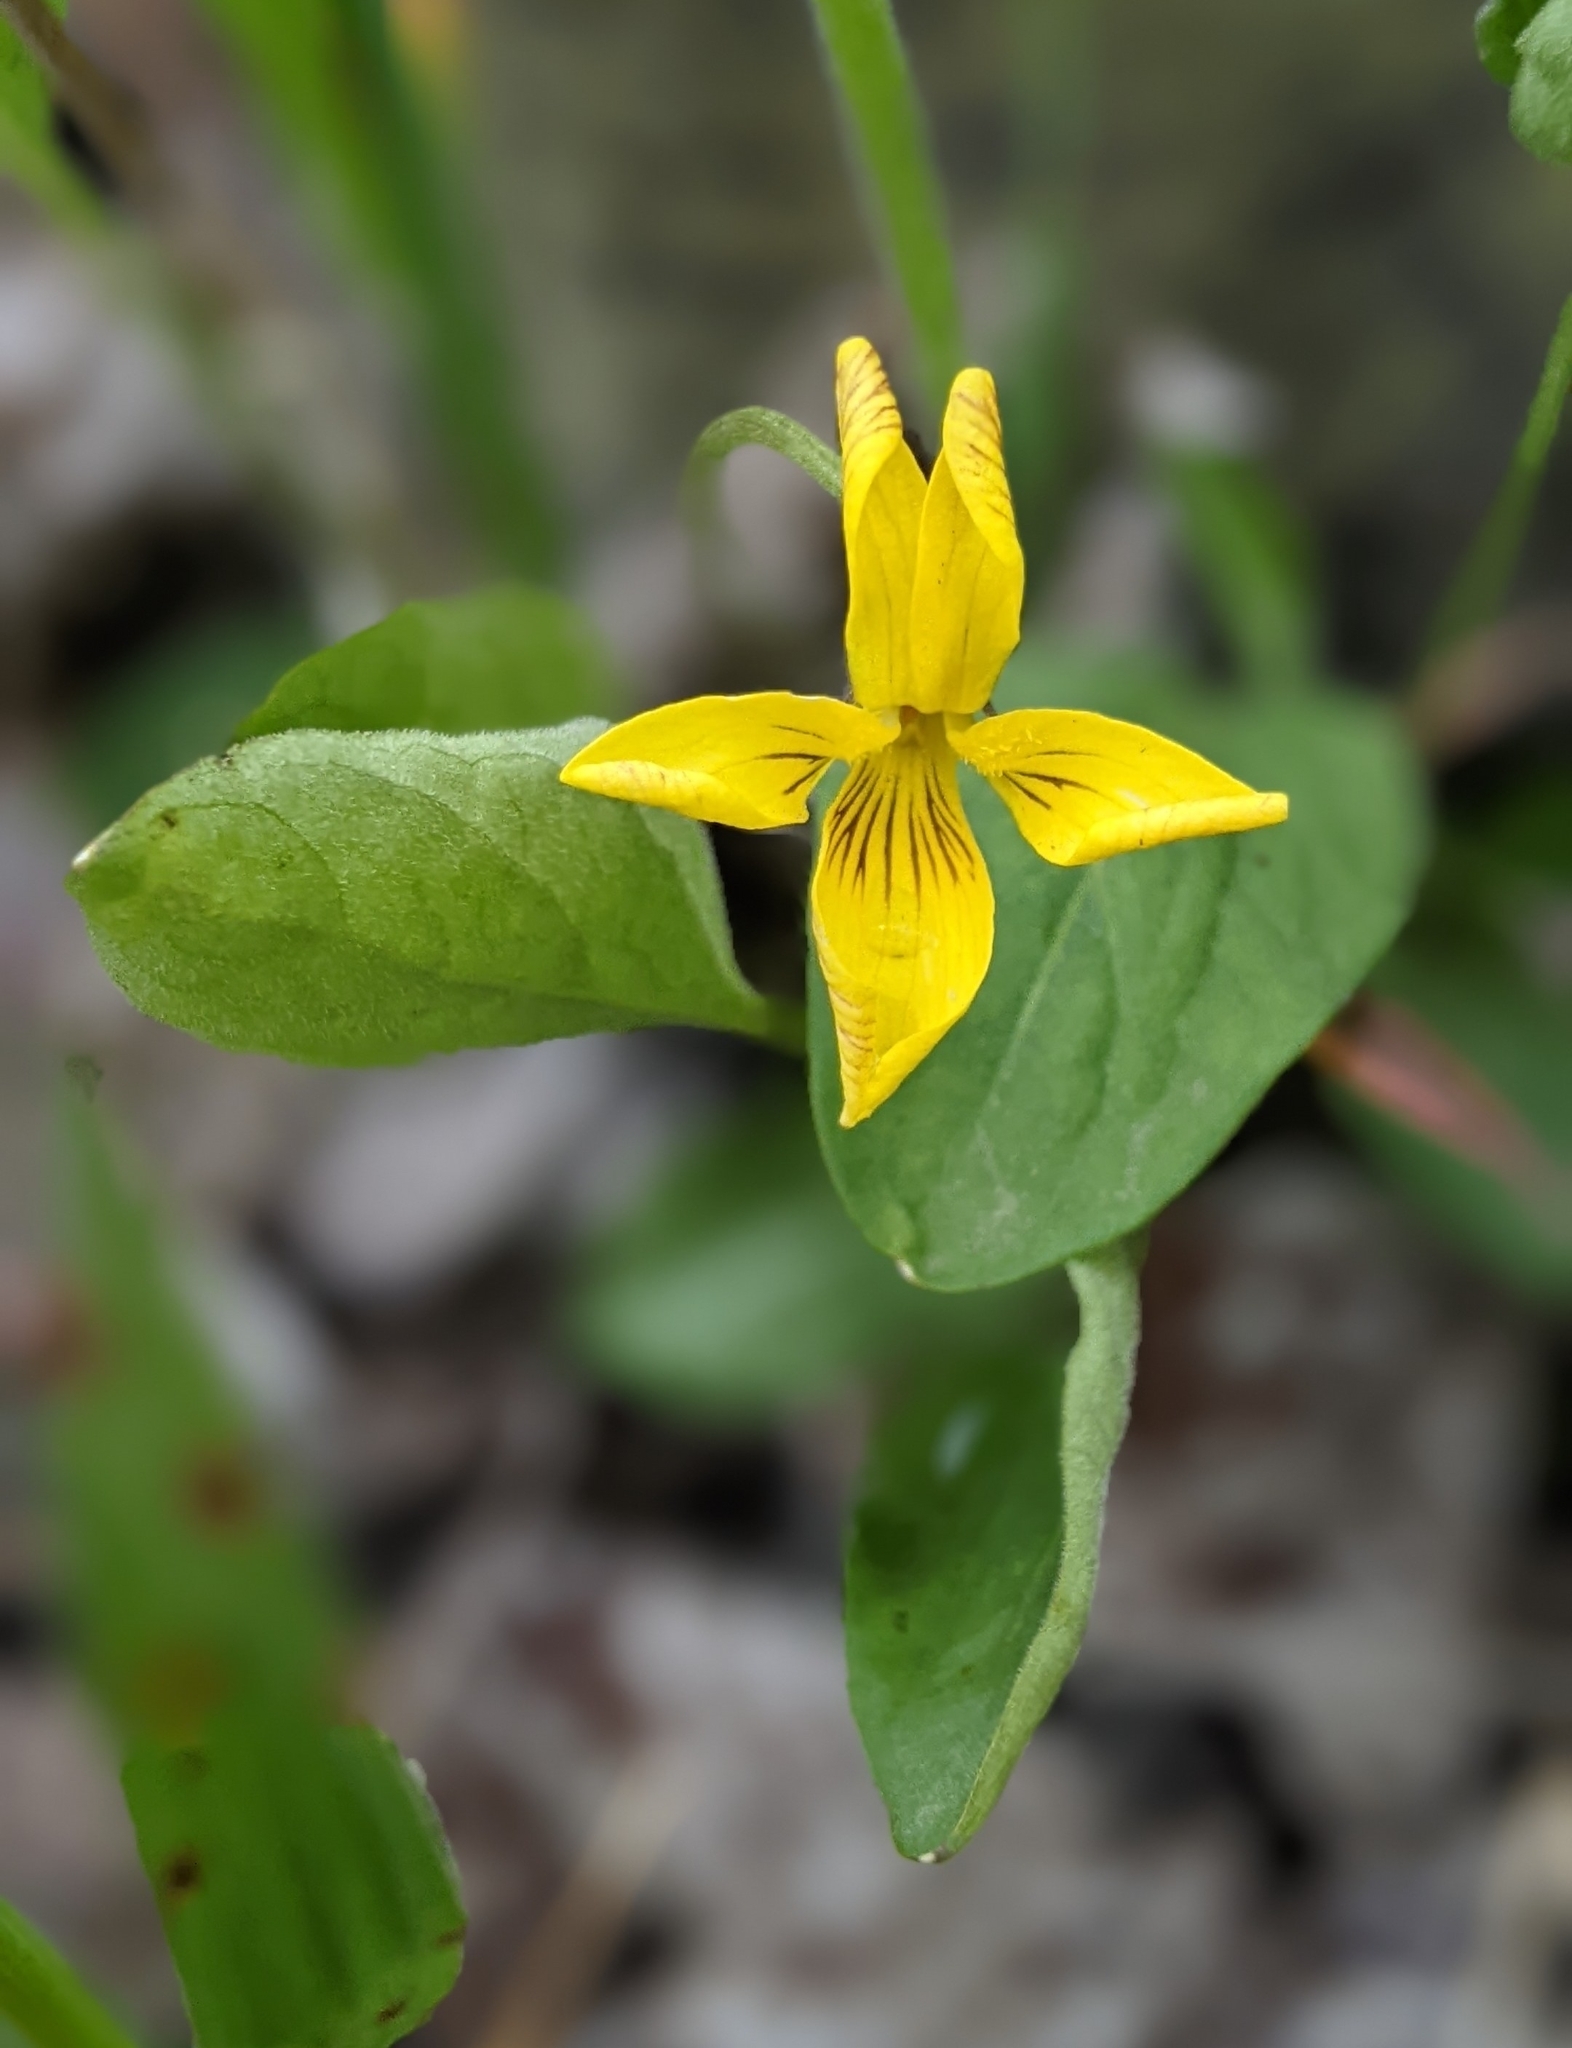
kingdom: Plantae
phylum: Tracheophyta
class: Magnoliopsida
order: Malpighiales
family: Violaceae
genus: Viola
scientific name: Viola glabella
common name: Stream violet
